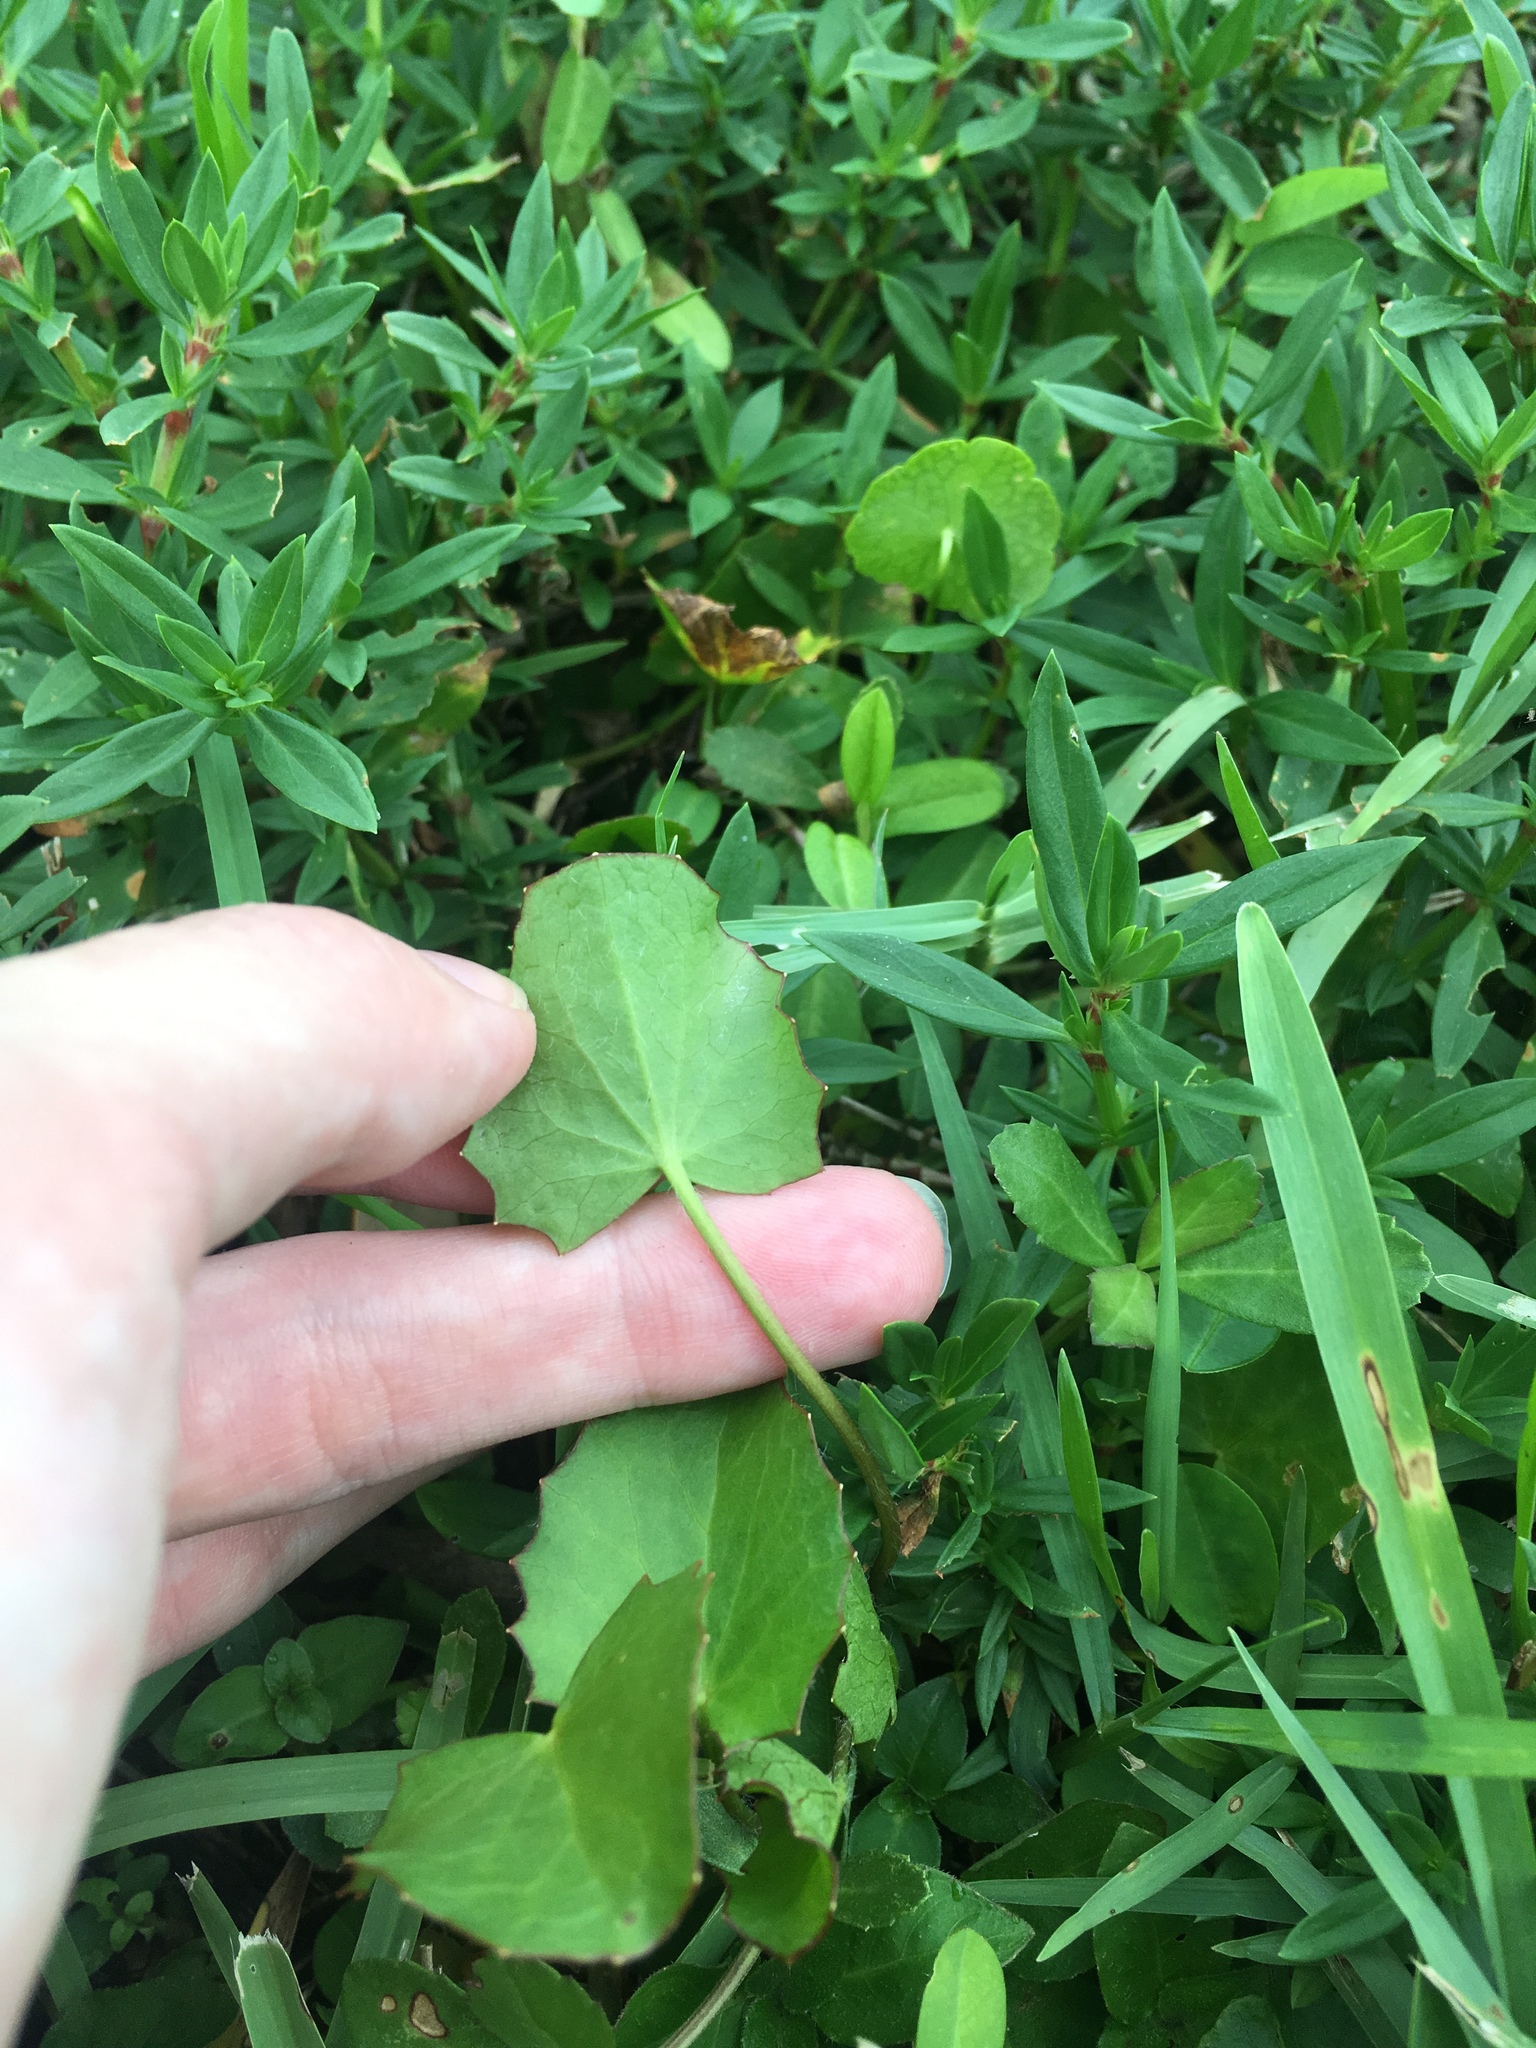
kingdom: Plantae
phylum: Tracheophyta
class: Magnoliopsida
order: Apiales
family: Apiaceae
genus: Centella
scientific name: Centella erecta
